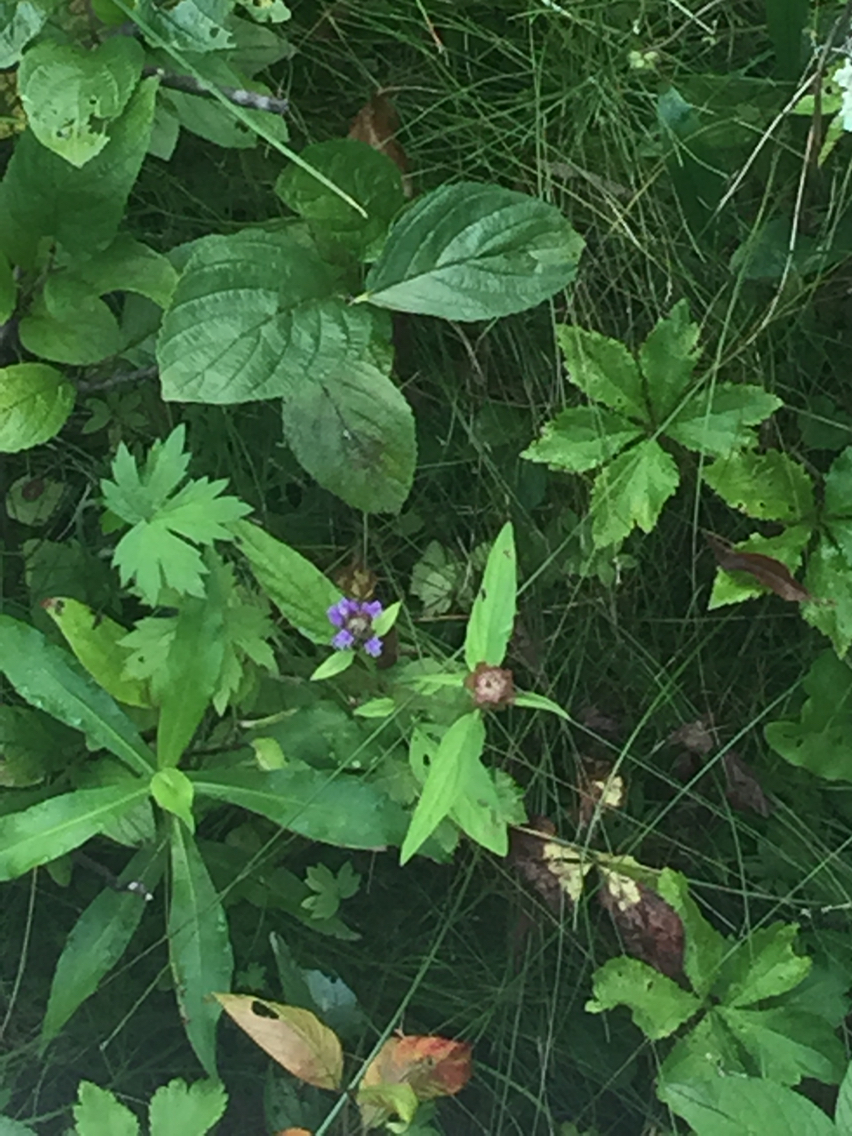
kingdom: Plantae
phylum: Tracheophyta
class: Magnoliopsida
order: Lamiales
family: Lamiaceae
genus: Prunella
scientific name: Prunella vulgaris
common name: Heal-all
